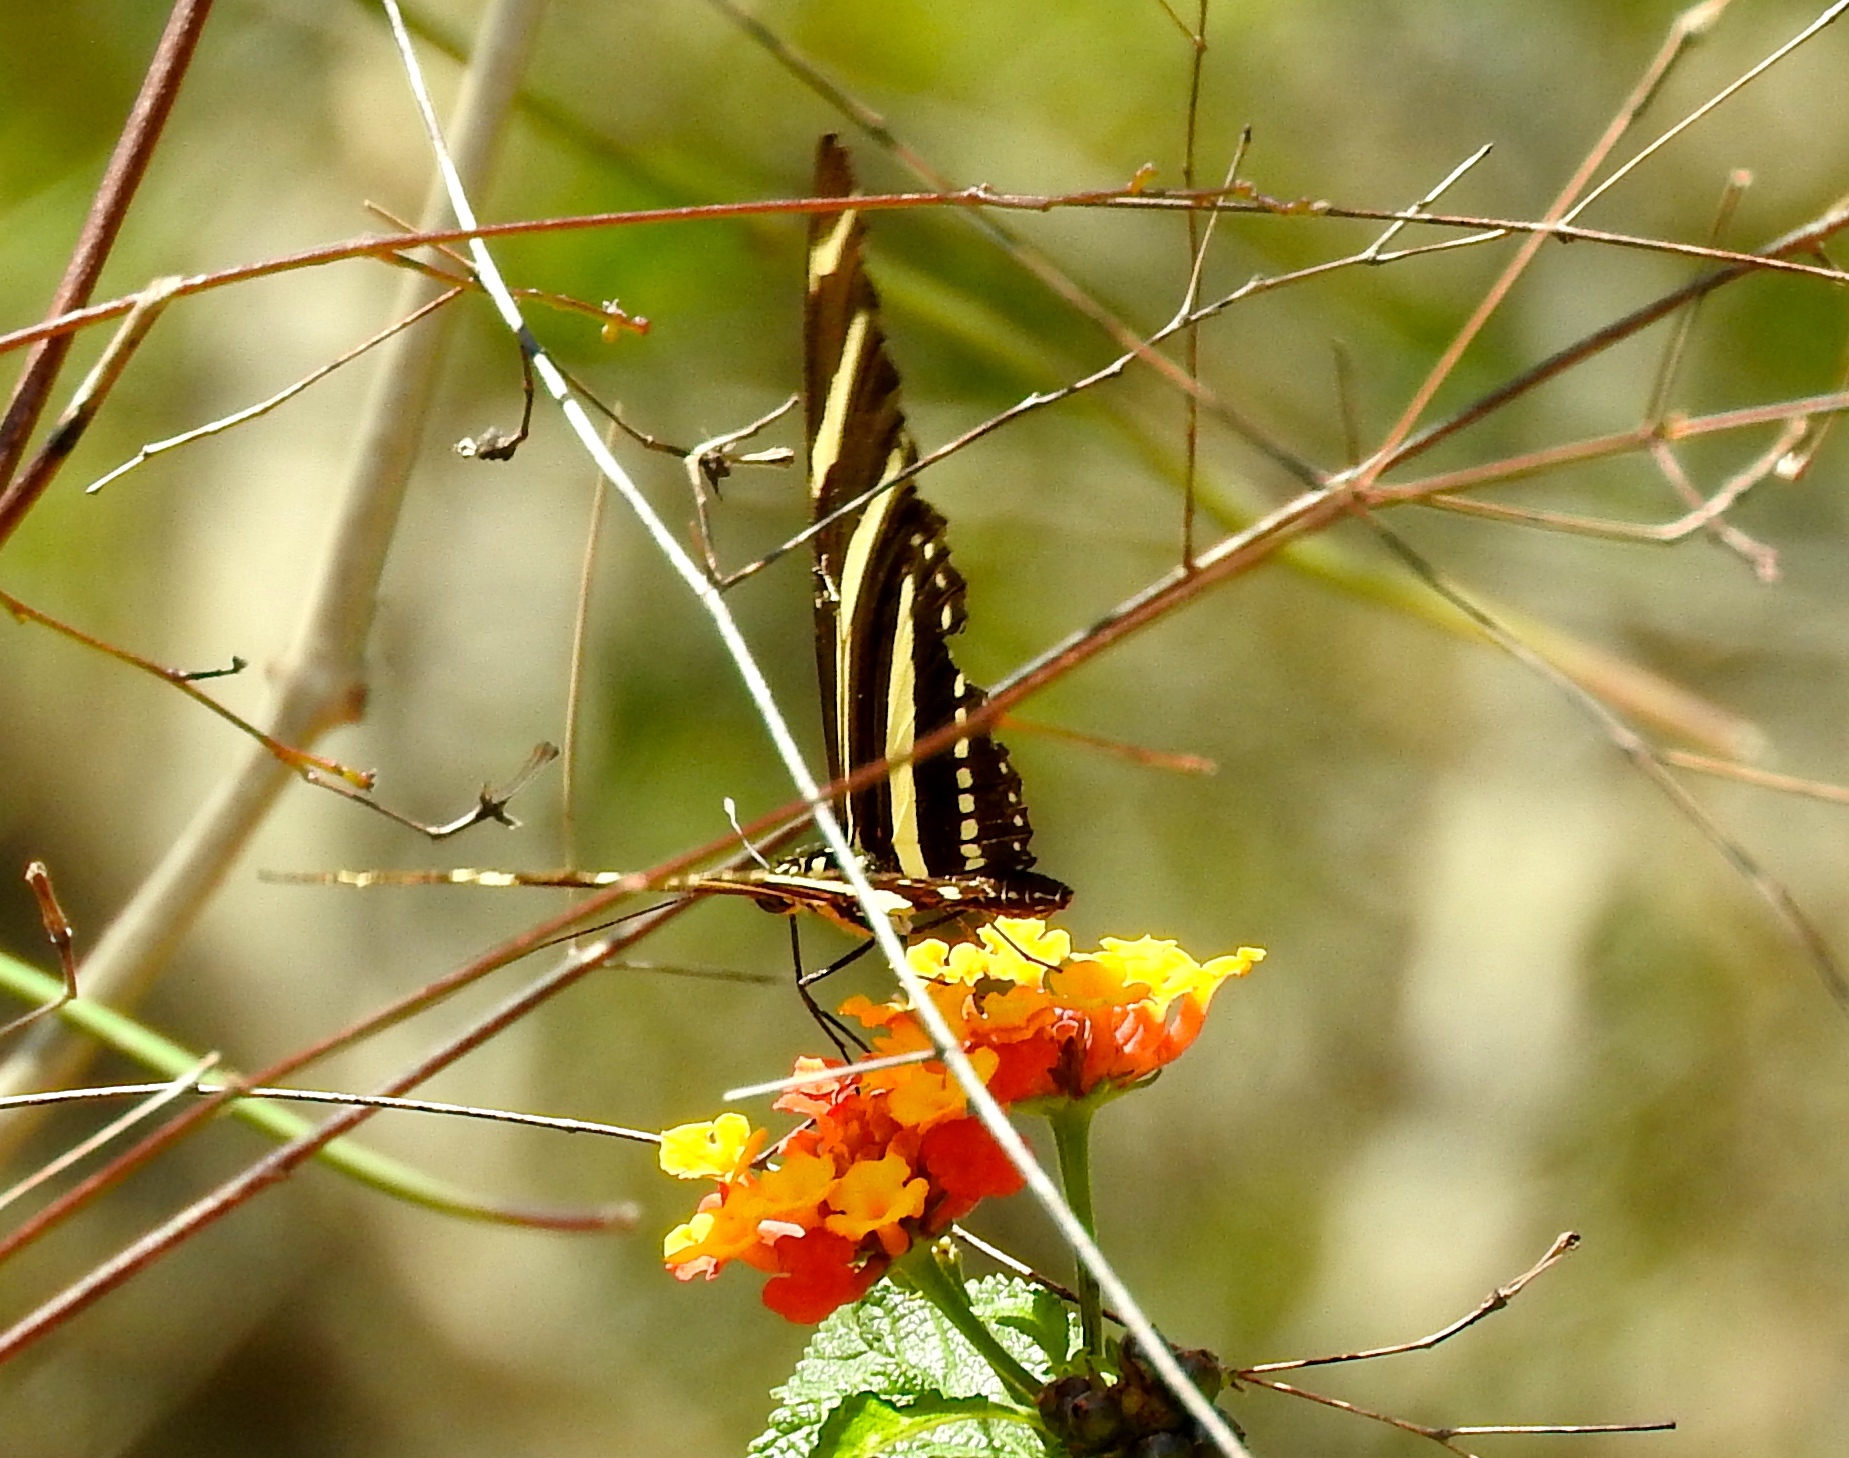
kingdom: Animalia
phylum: Arthropoda
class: Insecta
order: Lepidoptera
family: Nymphalidae
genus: Heliconius
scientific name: Heliconius charithonia
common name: Zebra long wing
